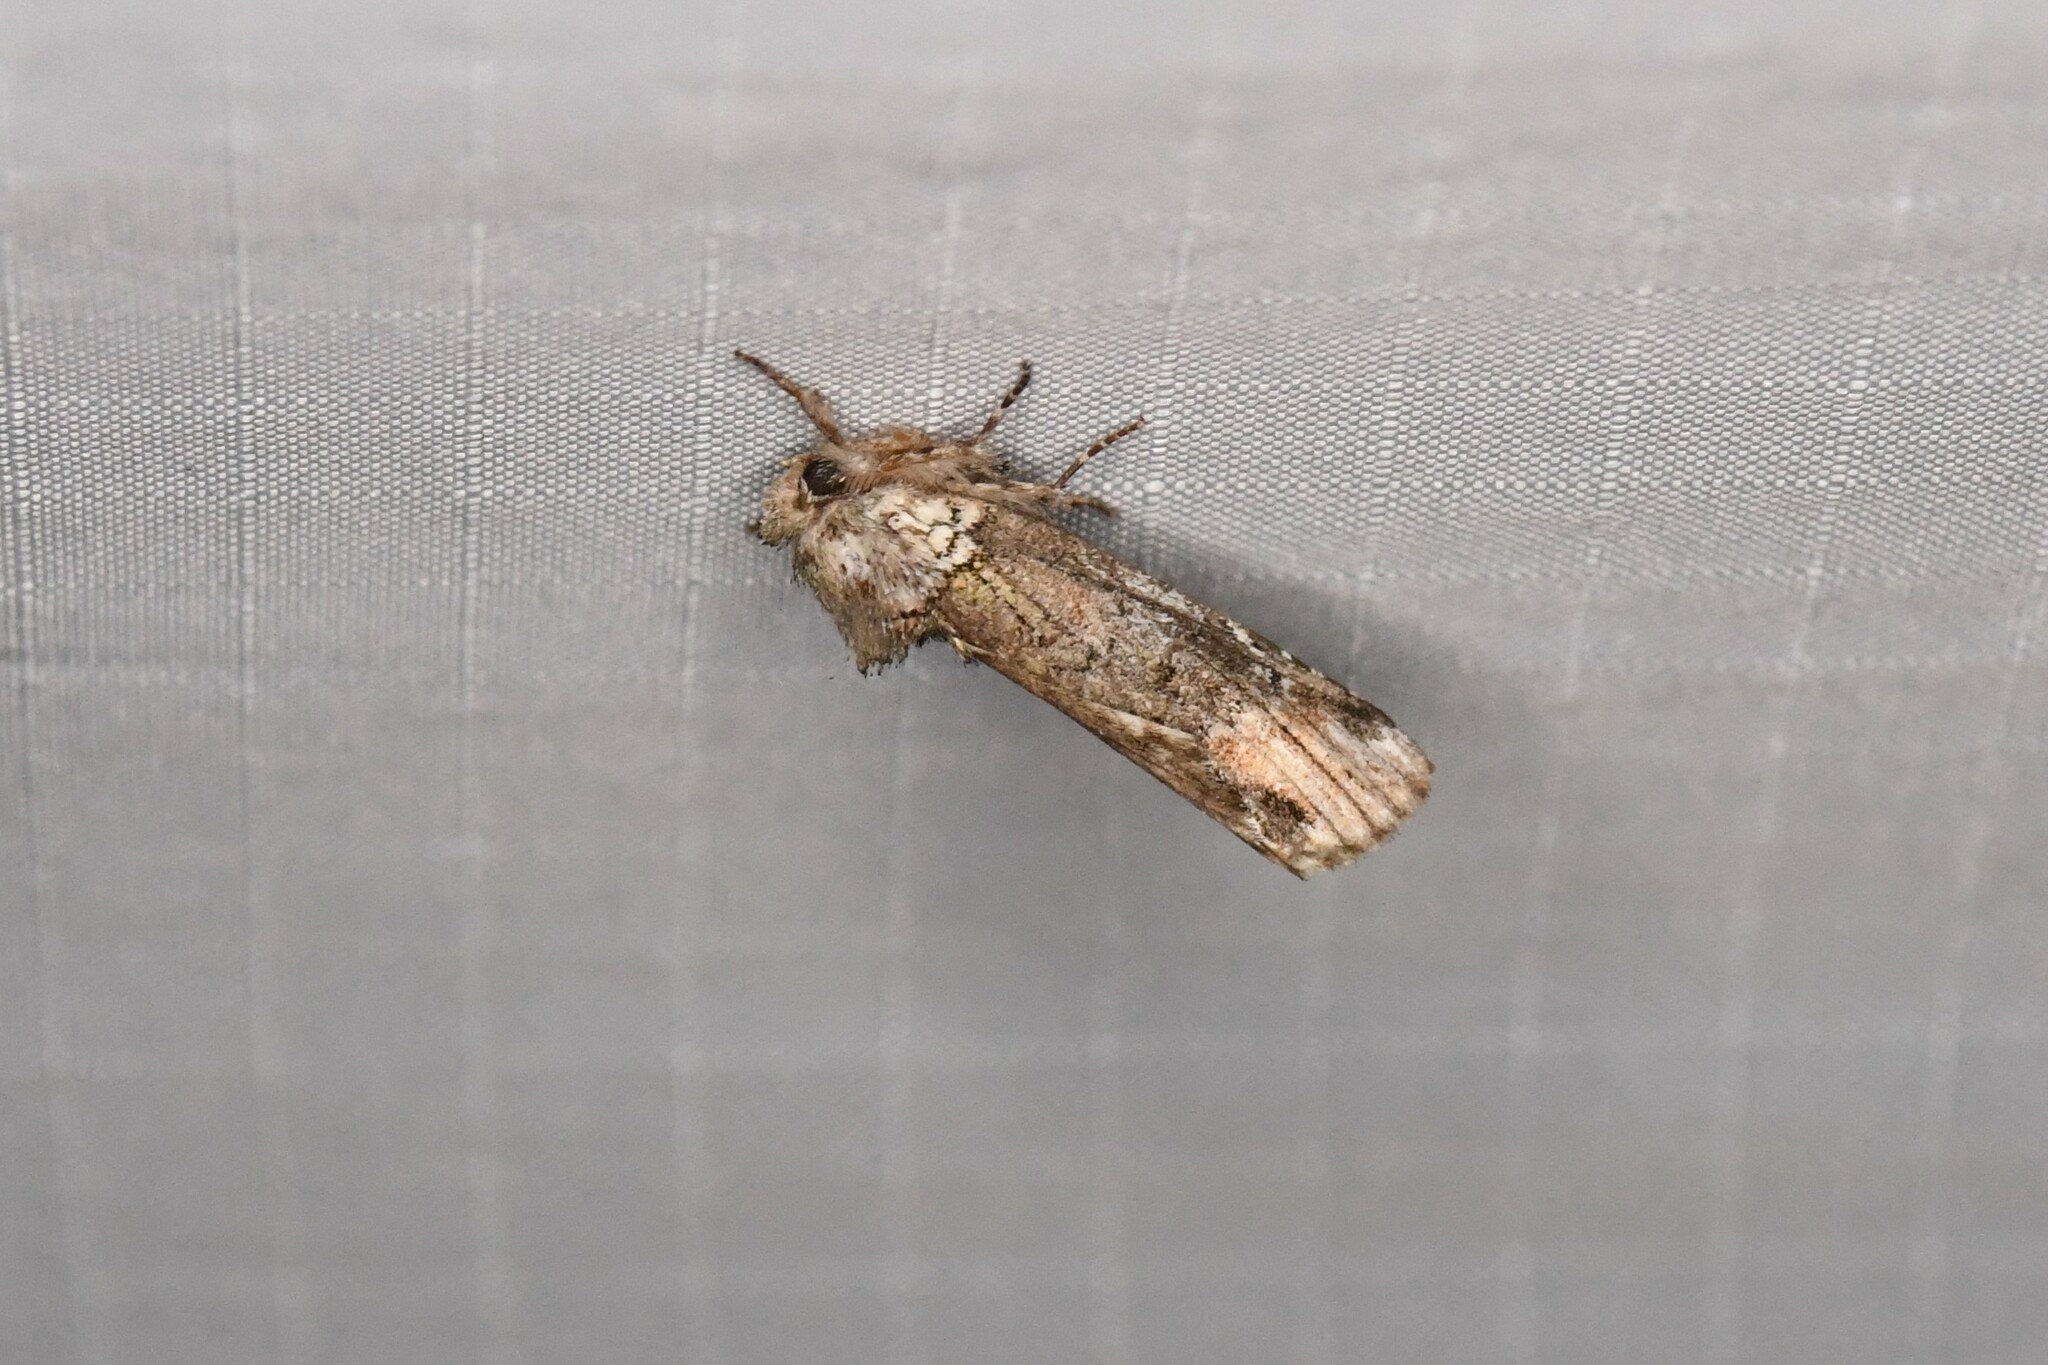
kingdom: Animalia
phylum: Arthropoda
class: Insecta
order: Lepidoptera
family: Notodontidae
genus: Schizura
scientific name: Schizura
